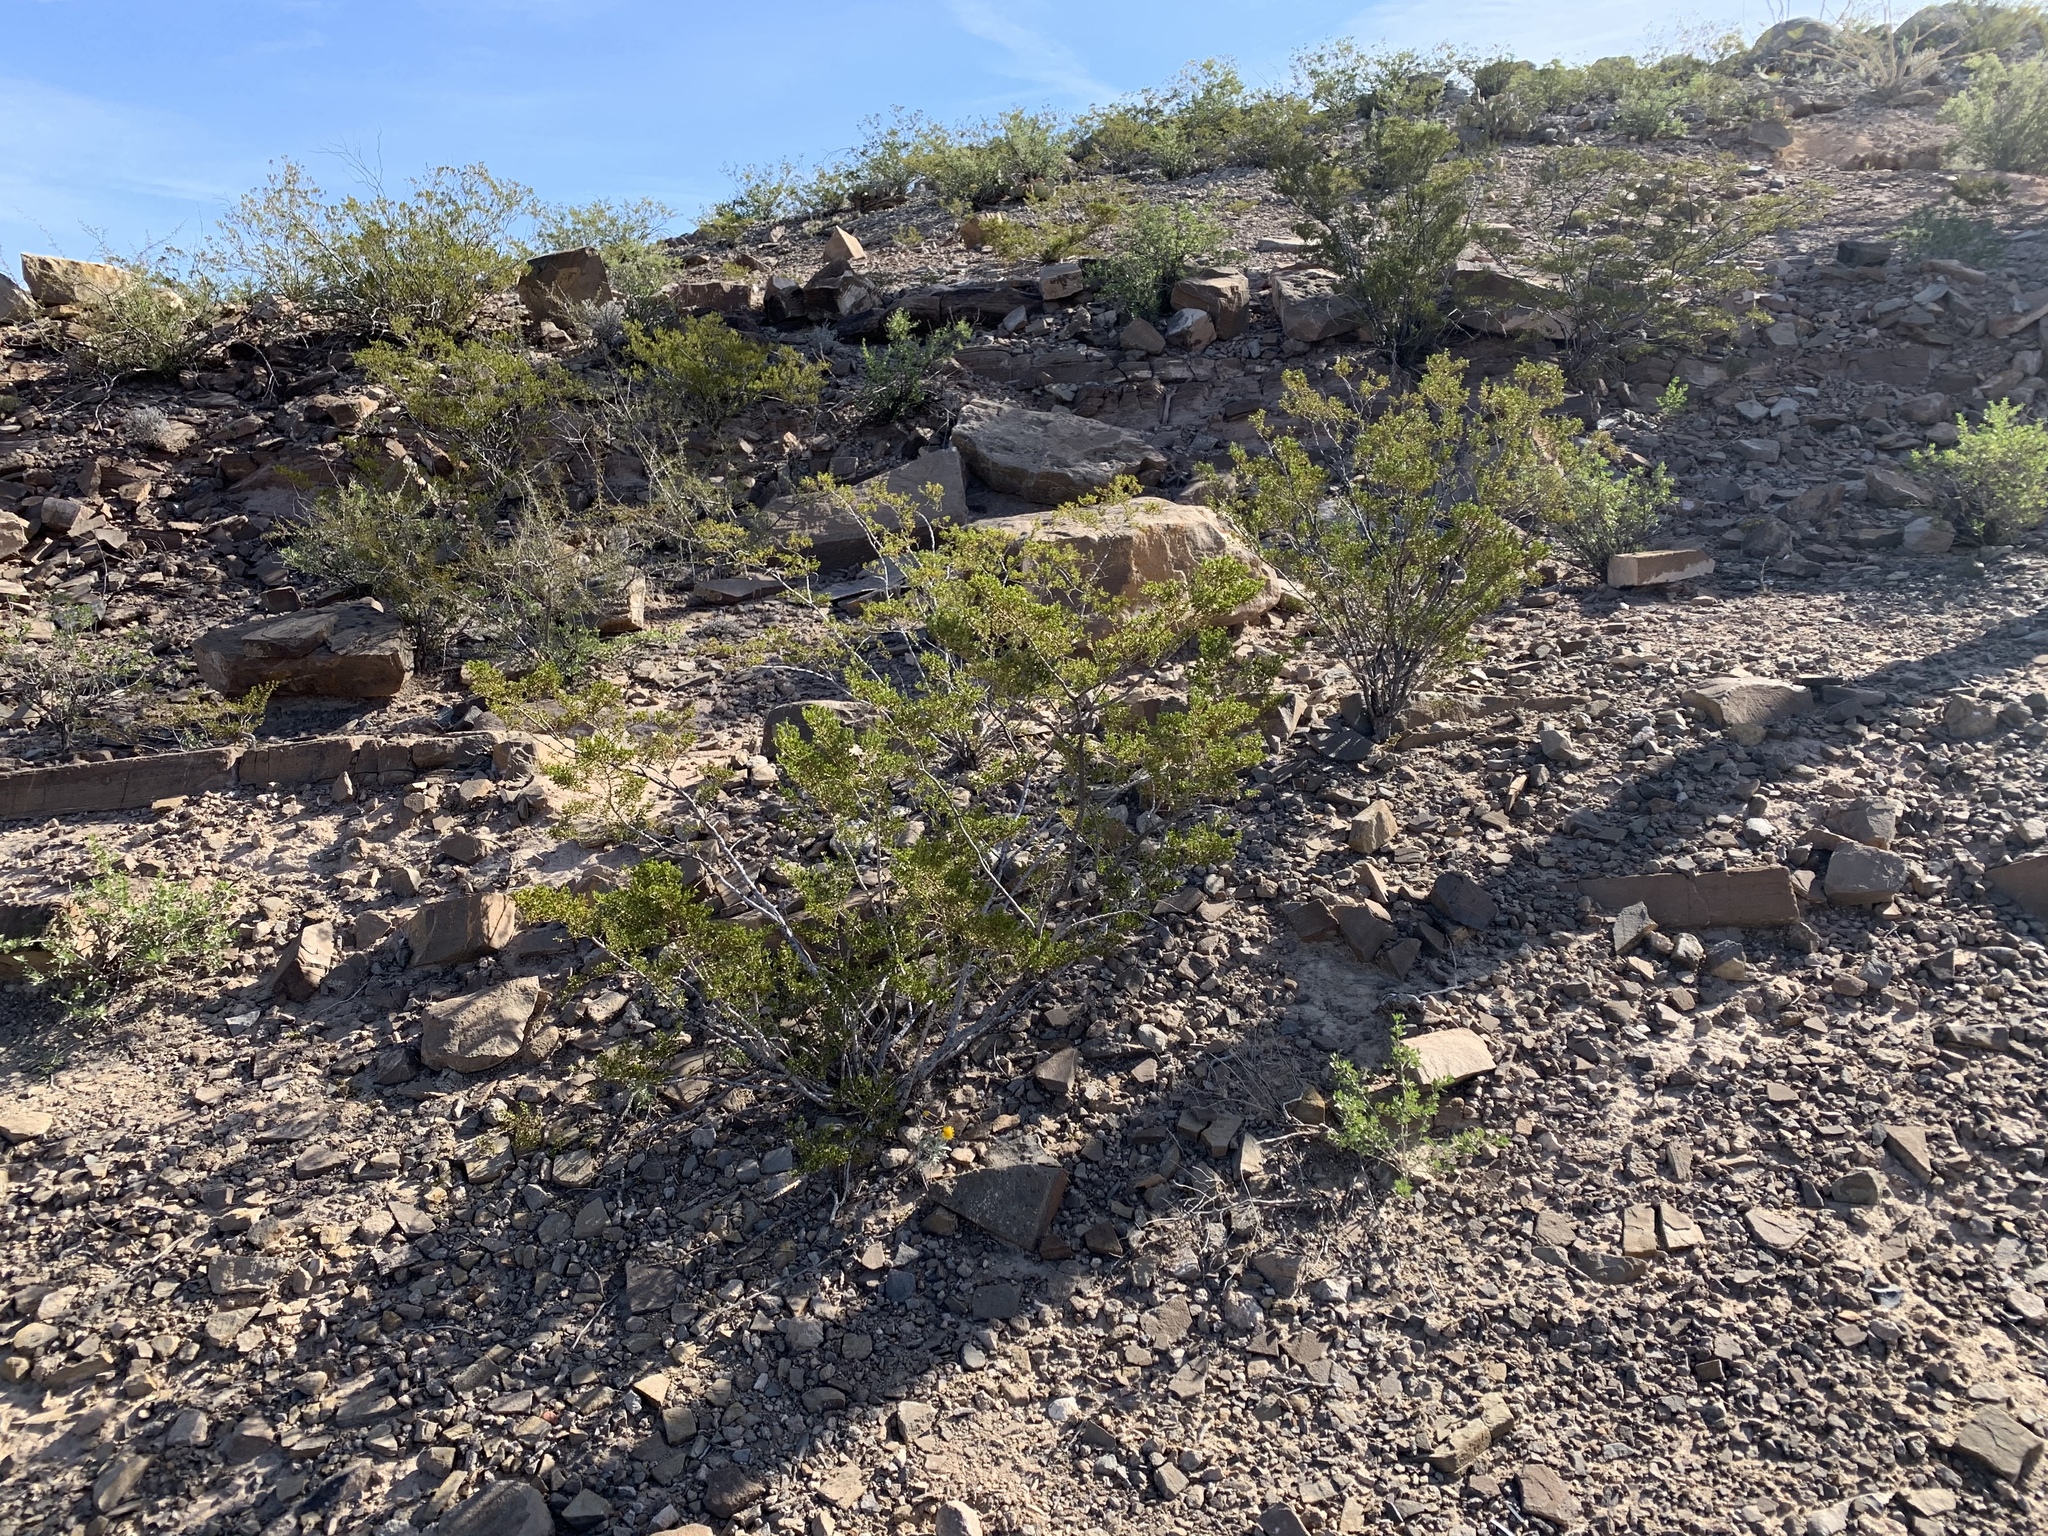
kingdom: Plantae
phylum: Tracheophyta
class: Magnoliopsida
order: Zygophyllales
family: Zygophyllaceae
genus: Larrea
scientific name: Larrea tridentata
